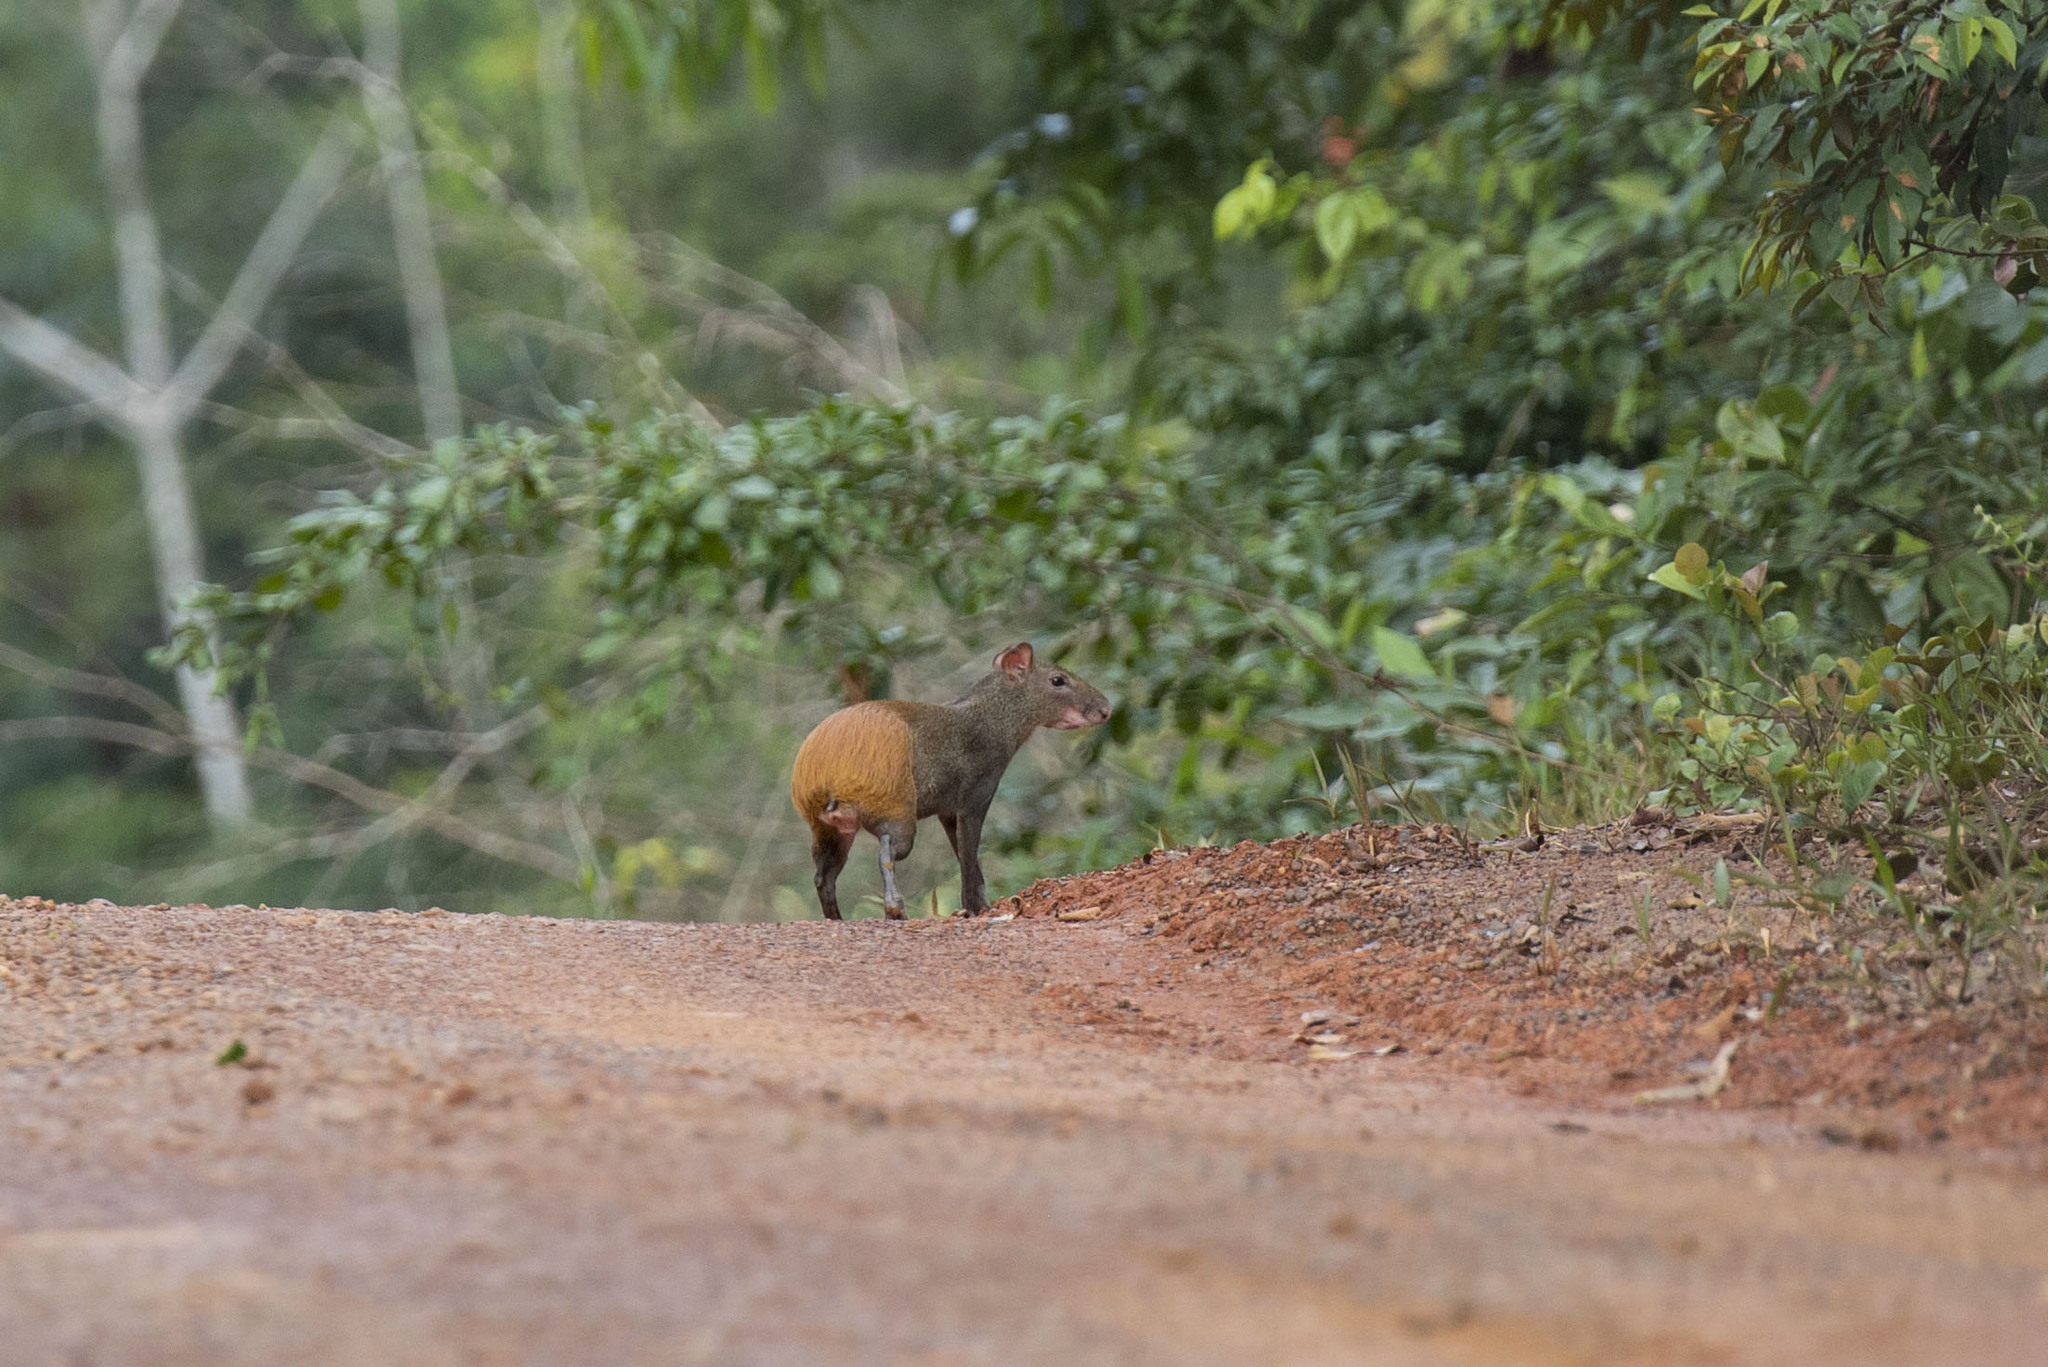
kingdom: Animalia
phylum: Chordata
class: Mammalia
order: Rodentia
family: Dasyproctidae
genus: Dasyprocta
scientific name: Dasyprocta leporina
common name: Red-rumped agouti
